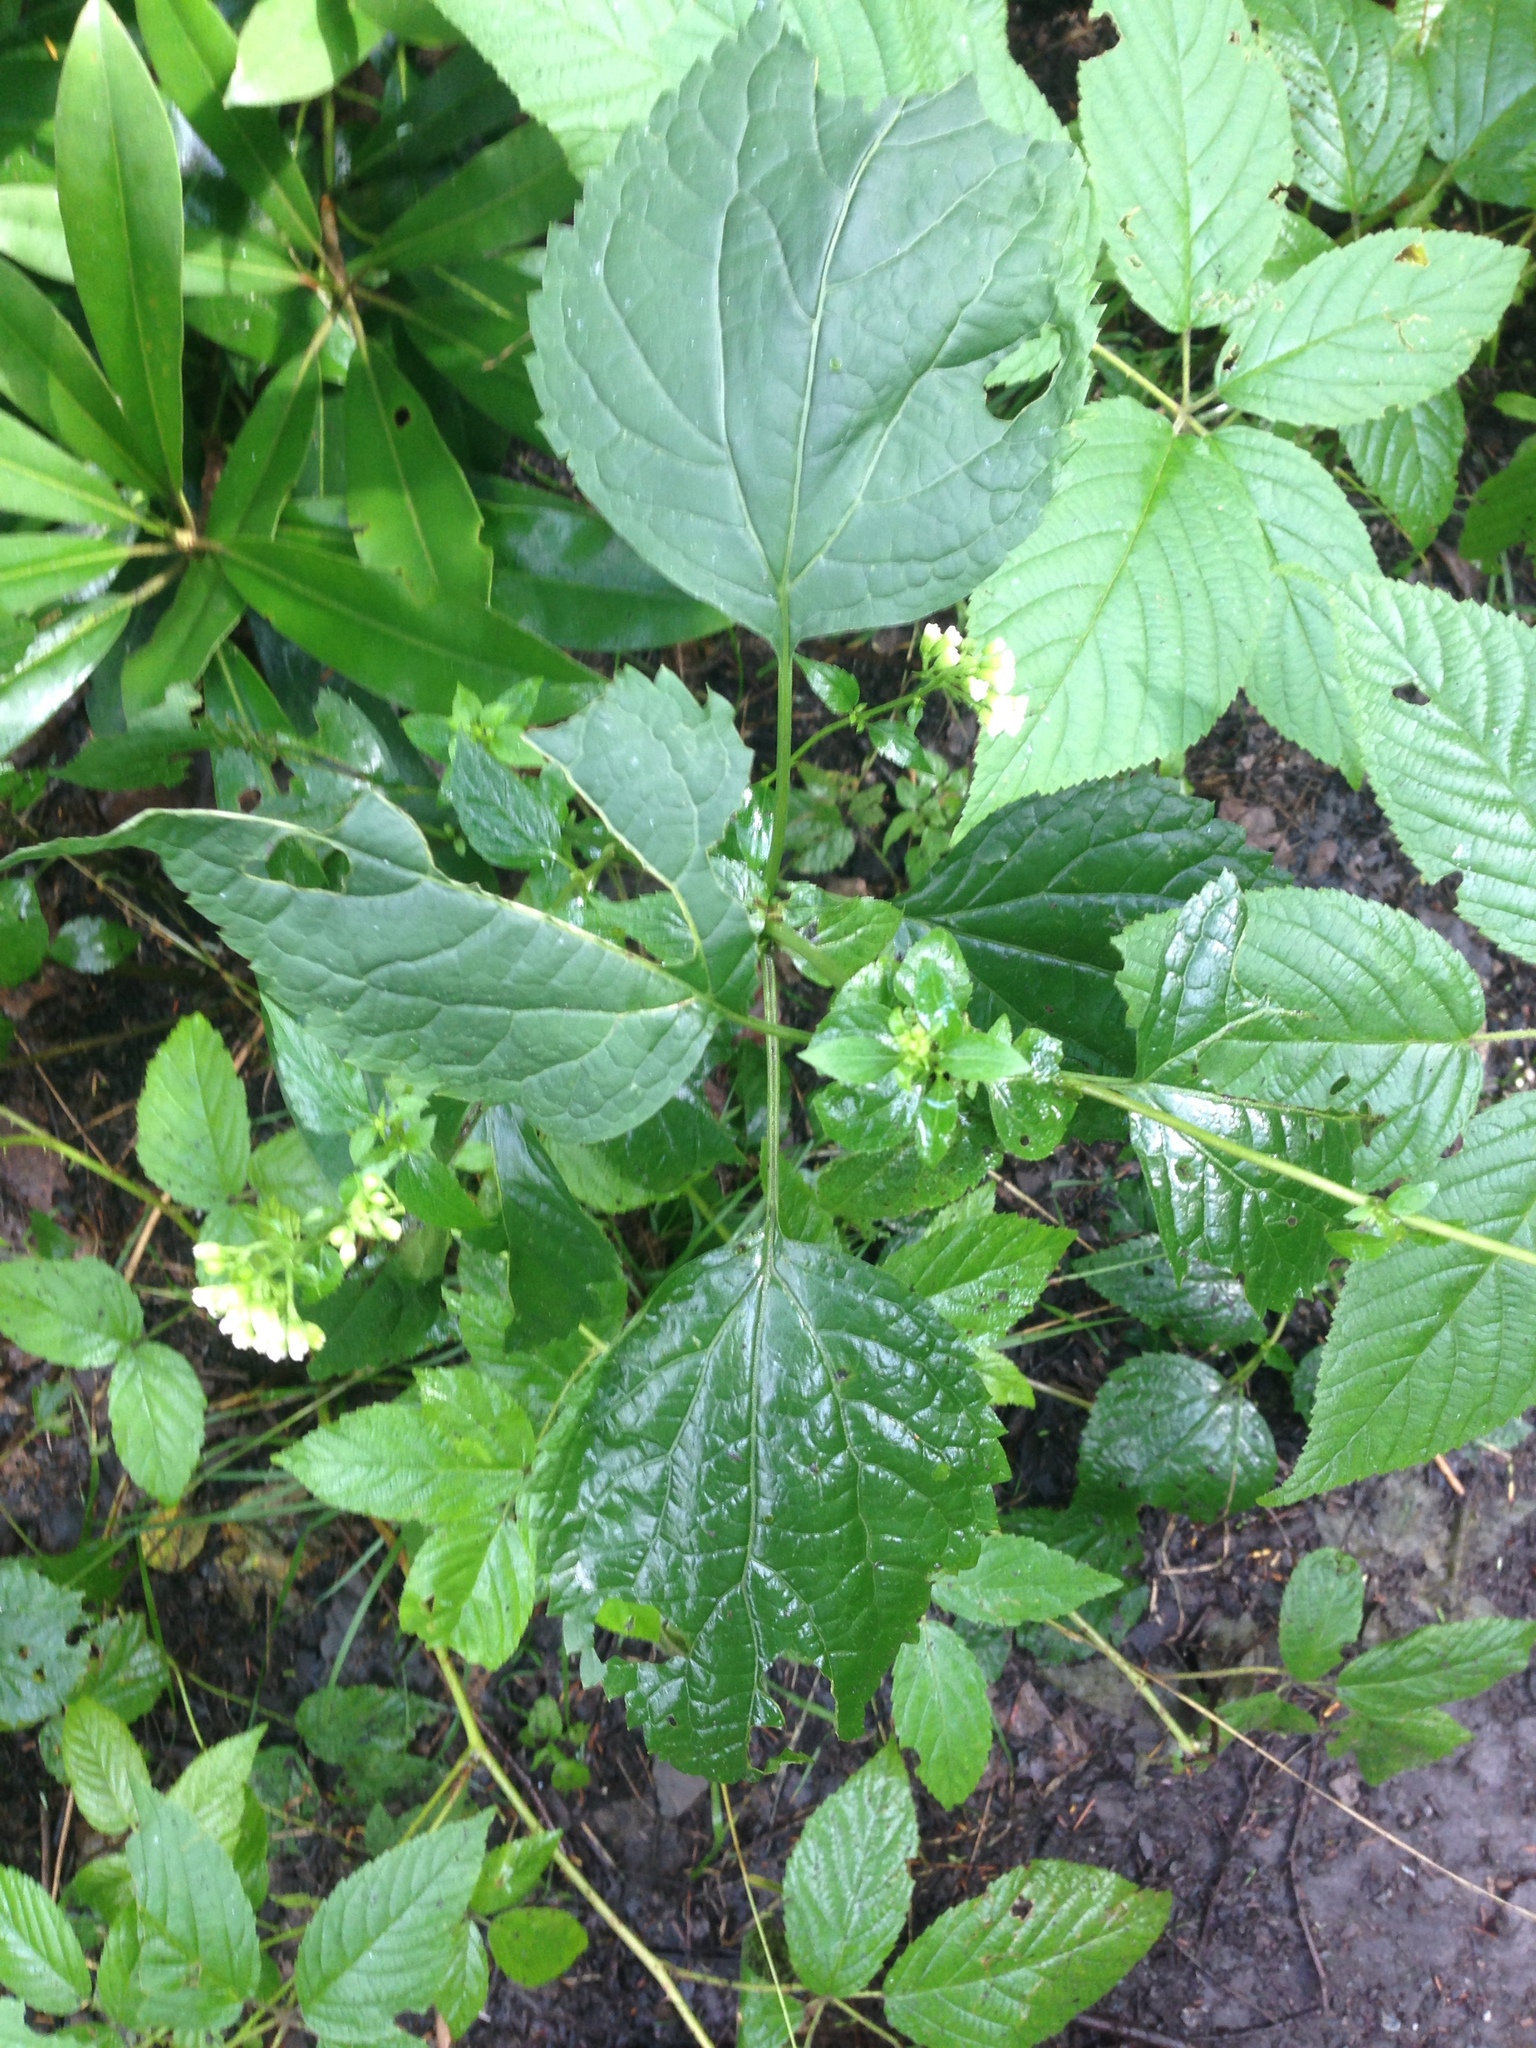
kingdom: Plantae
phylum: Tracheophyta
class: Magnoliopsida
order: Asterales
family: Asteraceae
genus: Ageratina
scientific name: Ageratina altissima
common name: White snakeroot
